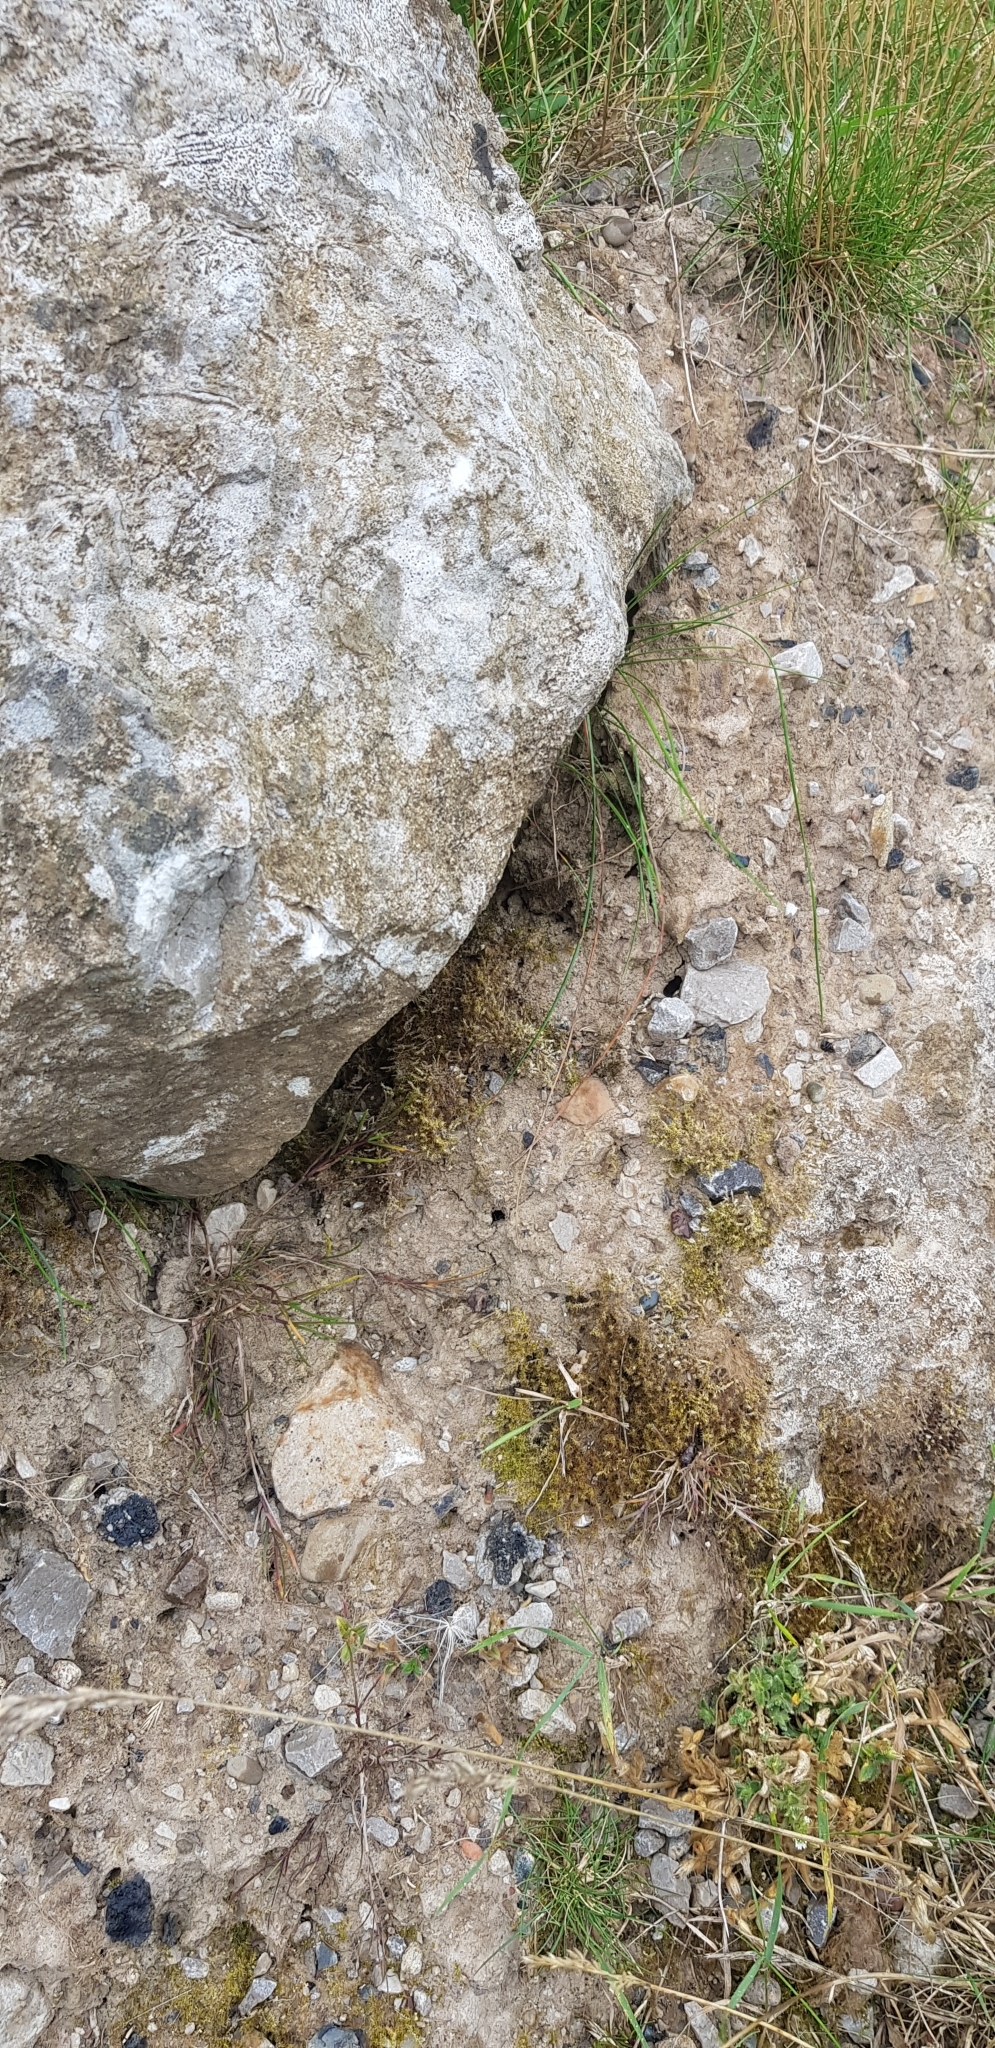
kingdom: Plantae
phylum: Bryophyta
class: Bryopsida
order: Hypnales
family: Amblystegiaceae
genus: Campylium
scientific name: Campylium protensum
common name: Dull starry fen moss
